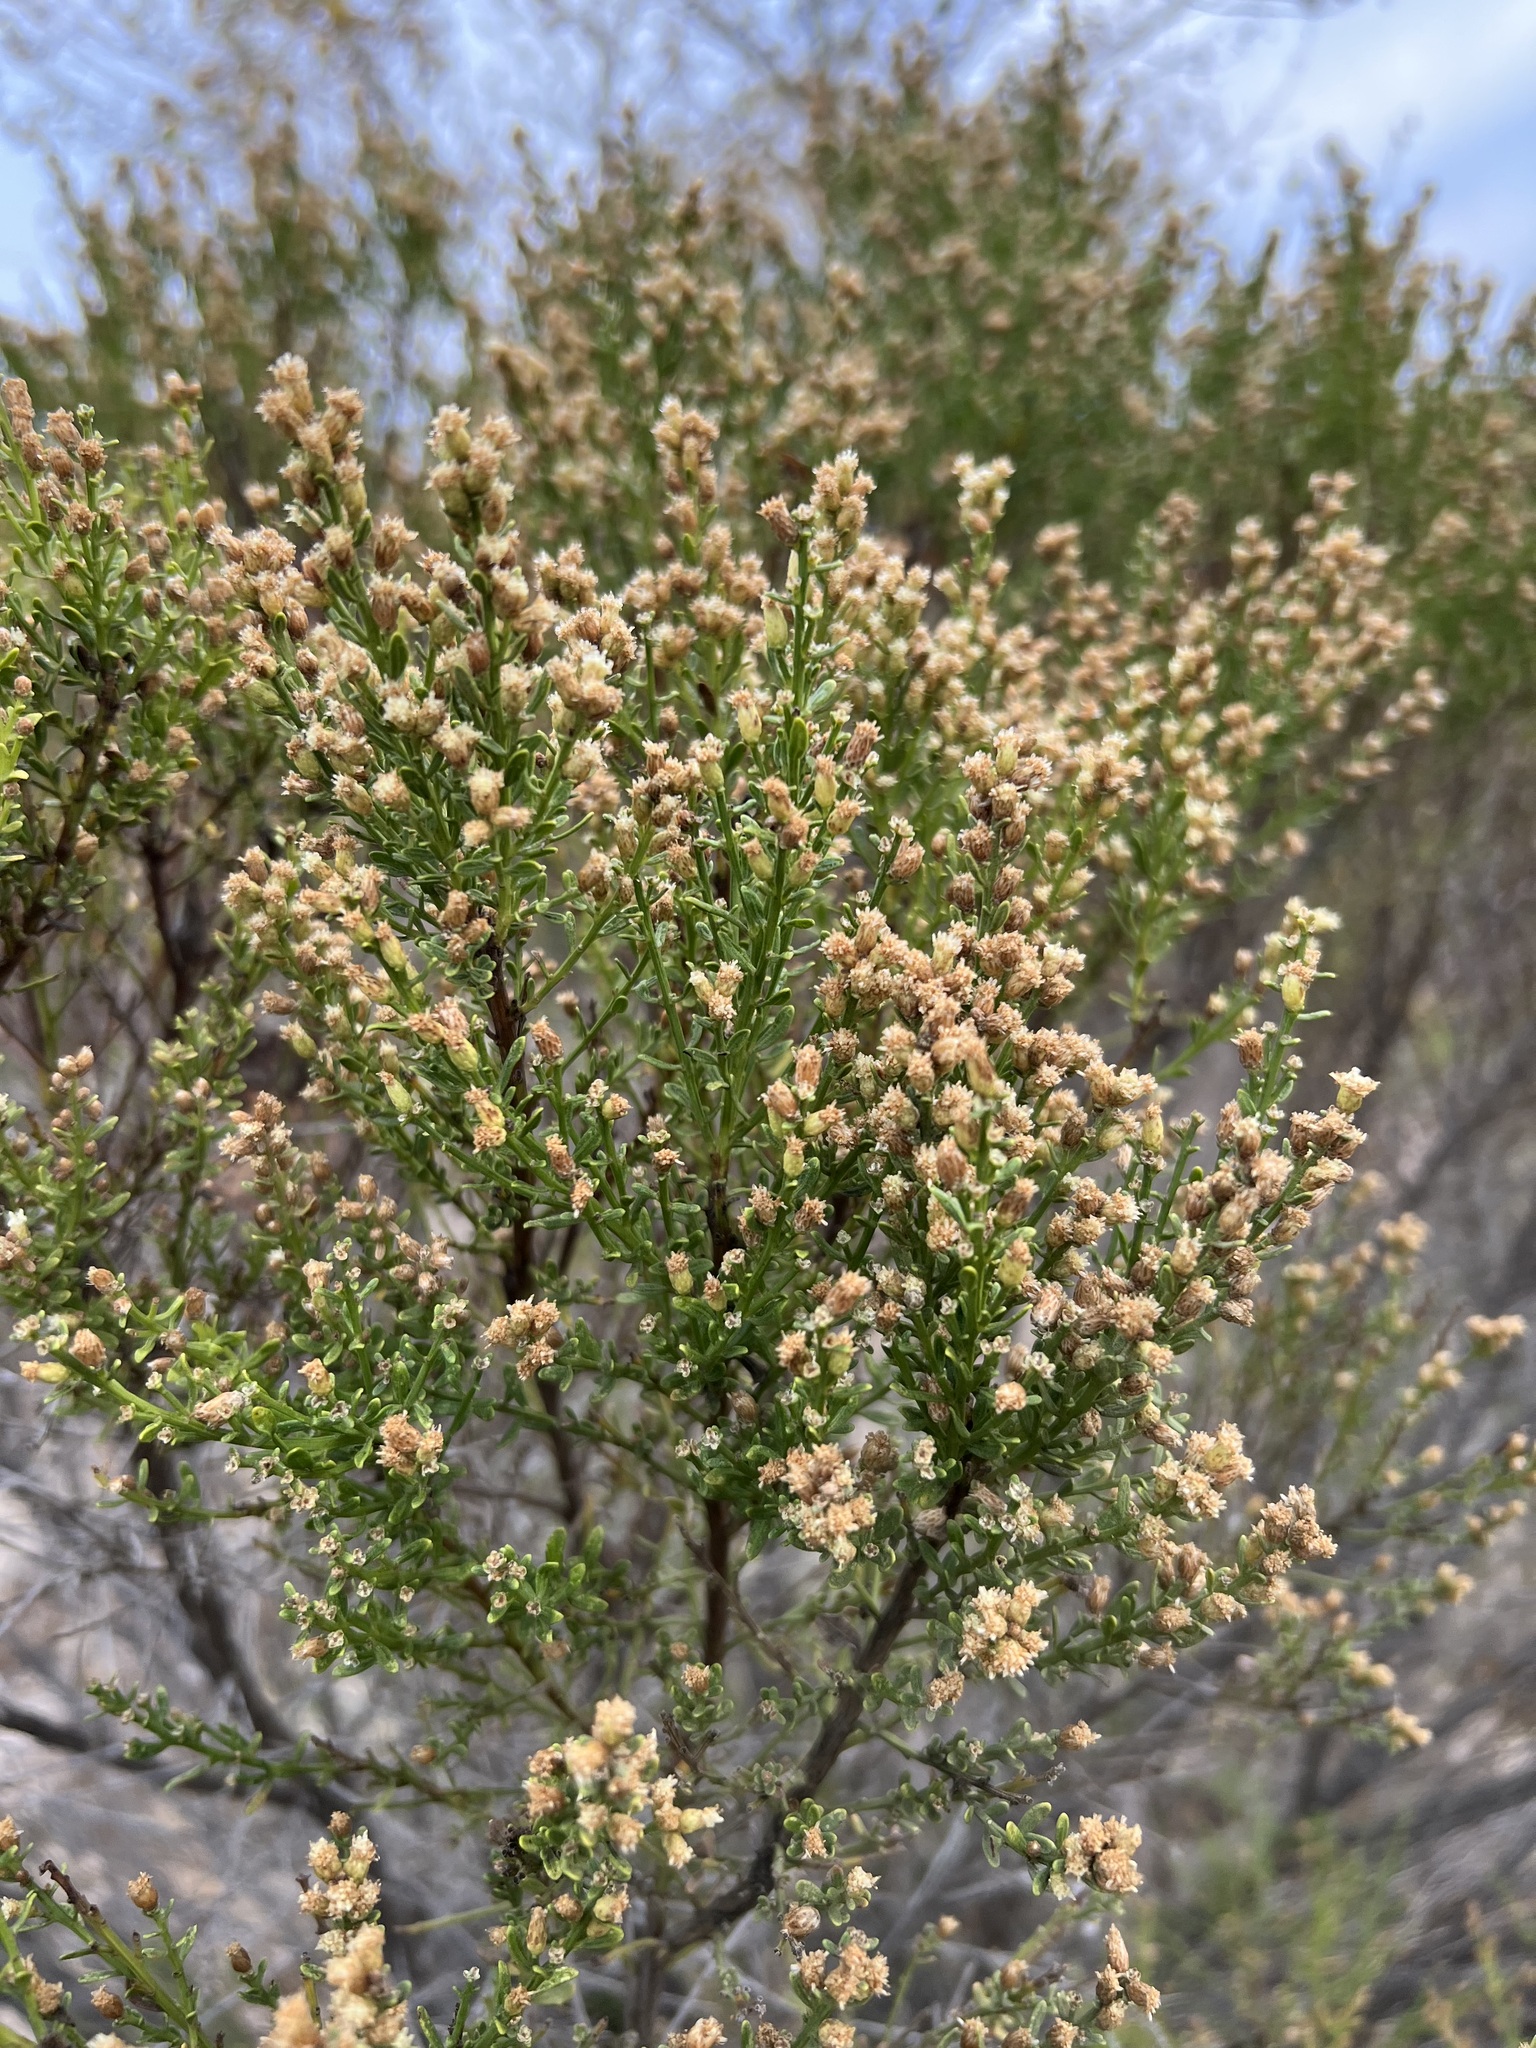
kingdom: Plantae
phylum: Tracheophyta
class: Magnoliopsida
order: Asterales
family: Asteraceae
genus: Baccharis
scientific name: Baccharis sarothroides
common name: Desert-broom
